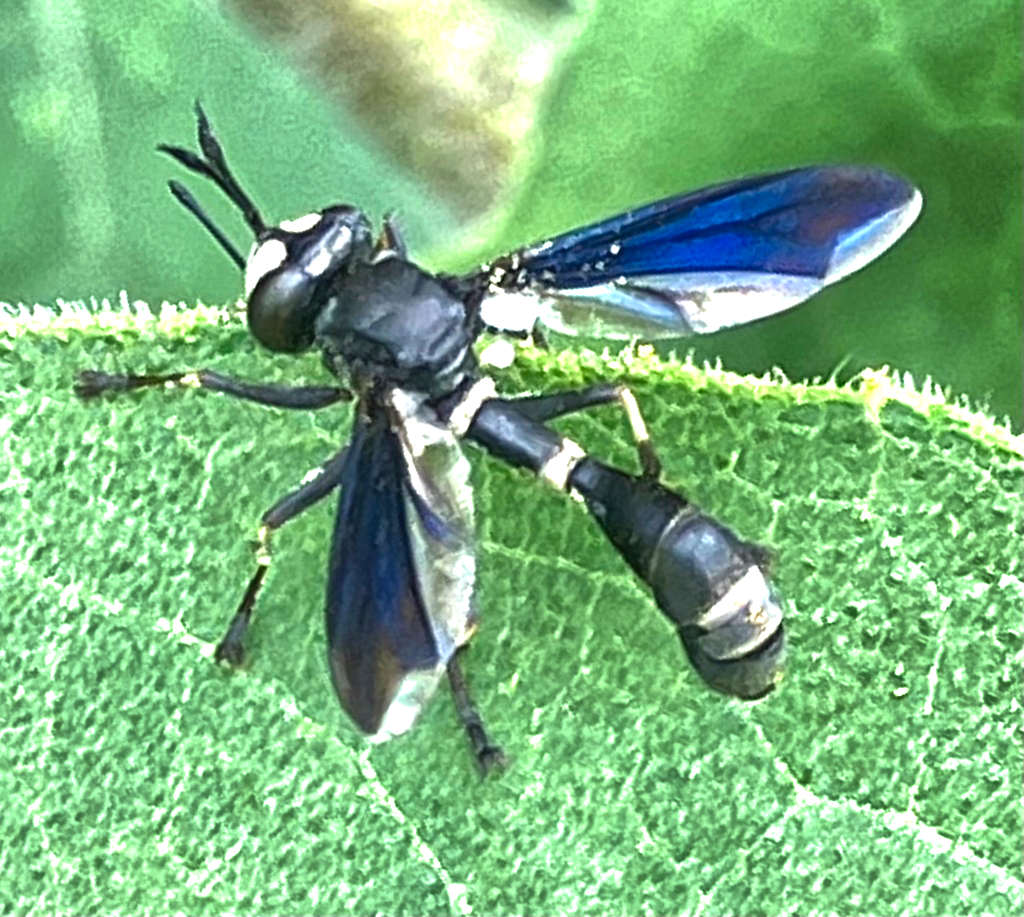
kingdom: Animalia
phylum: Arthropoda
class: Insecta
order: Diptera
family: Conopidae
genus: Physocephala
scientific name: Physocephala tibialis
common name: Common eastern physocephala
